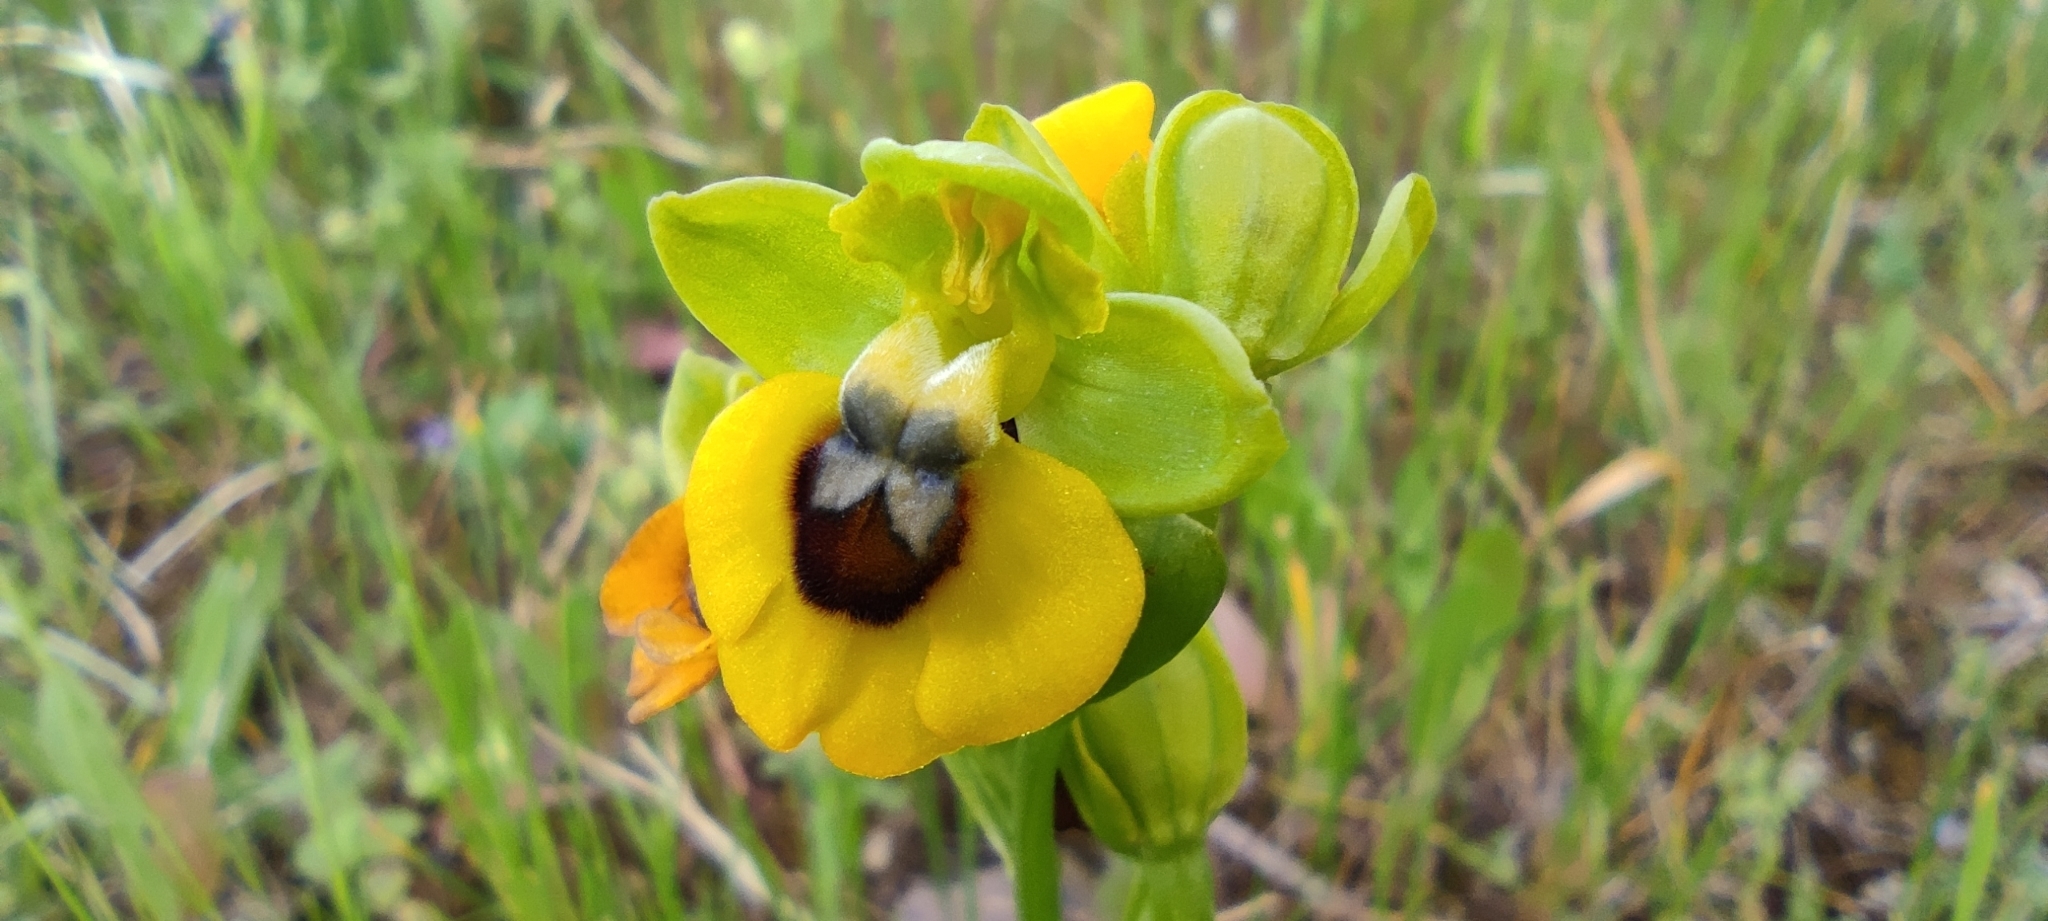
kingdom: Plantae
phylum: Tracheophyta
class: Liliopsida
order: Asparagales
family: Orchidaceae
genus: Ophrys
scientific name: Ophrys lutea
